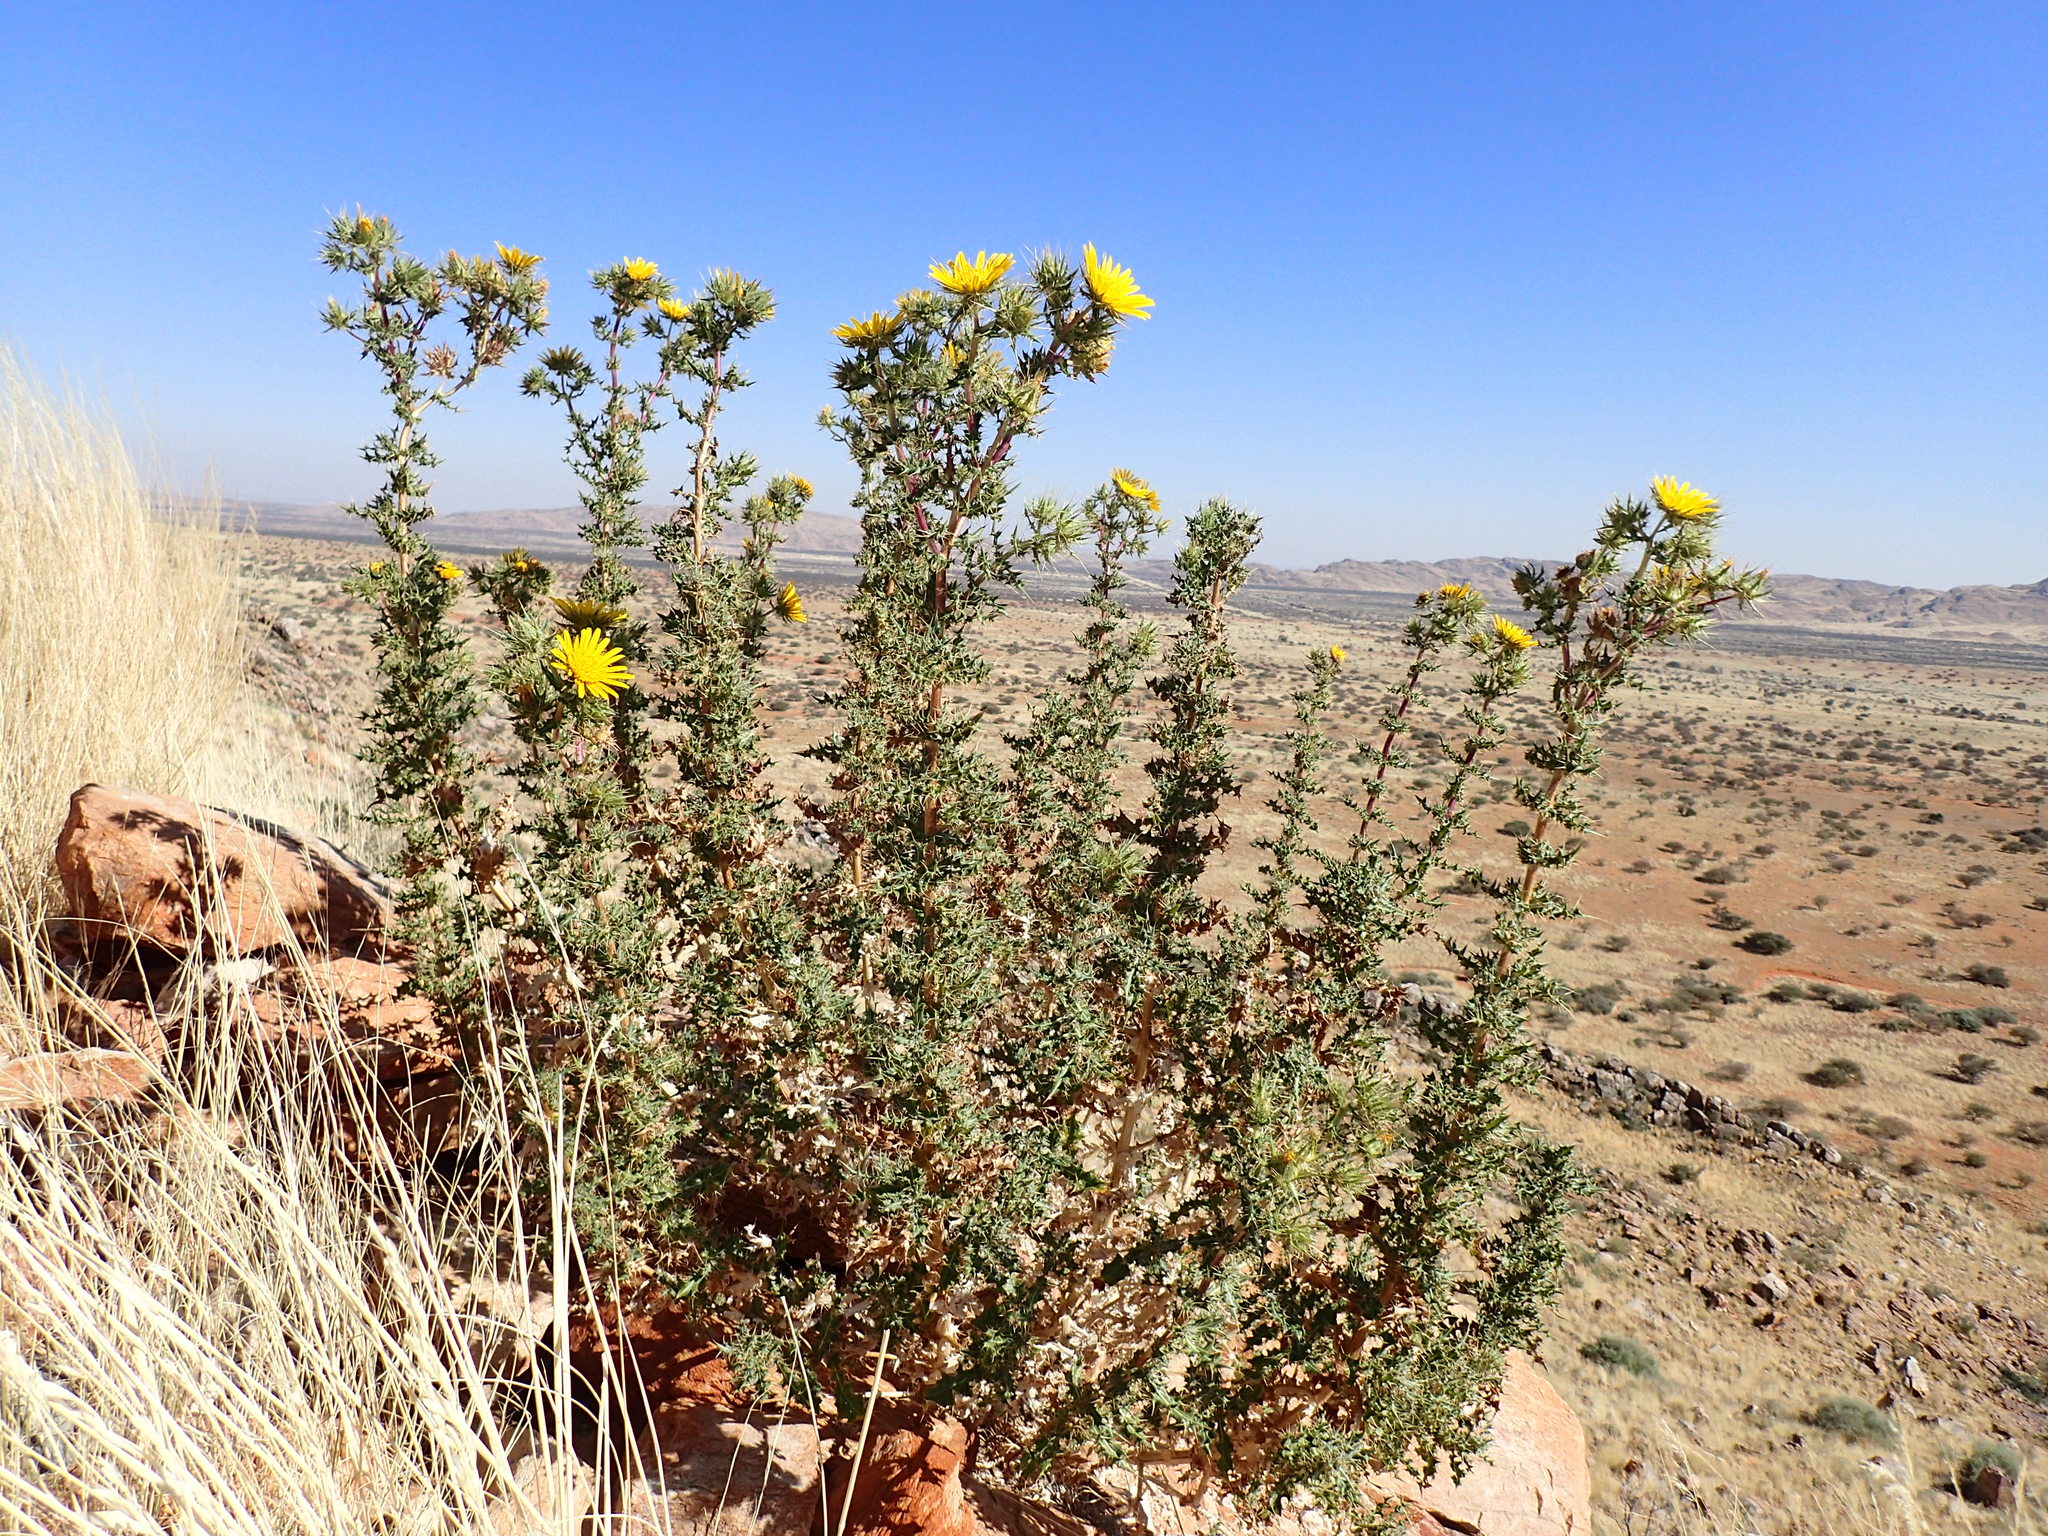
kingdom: Plantae
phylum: Tracheophyta
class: Magnoliopsida
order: Asterales
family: Asteraceae
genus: Berkheya
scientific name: Berkheya spinosissima
